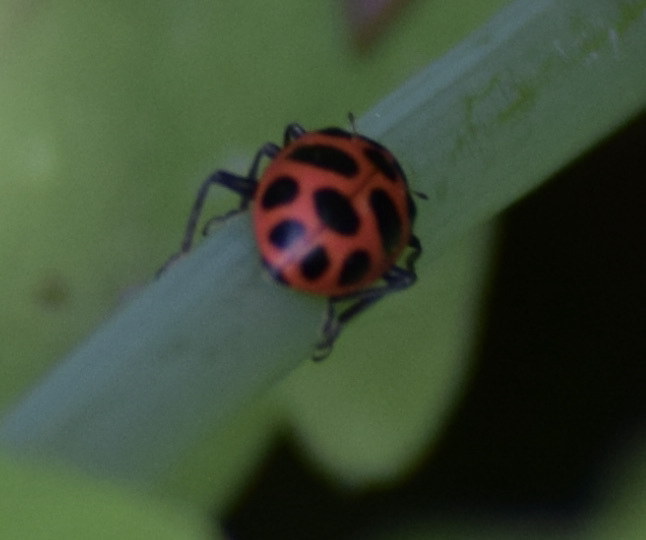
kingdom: Animalia
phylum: Arthropoda
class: Insecta
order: Coleoptera
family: Coccinellidae
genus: Coleomegilla
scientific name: Coleomegilla maculata
